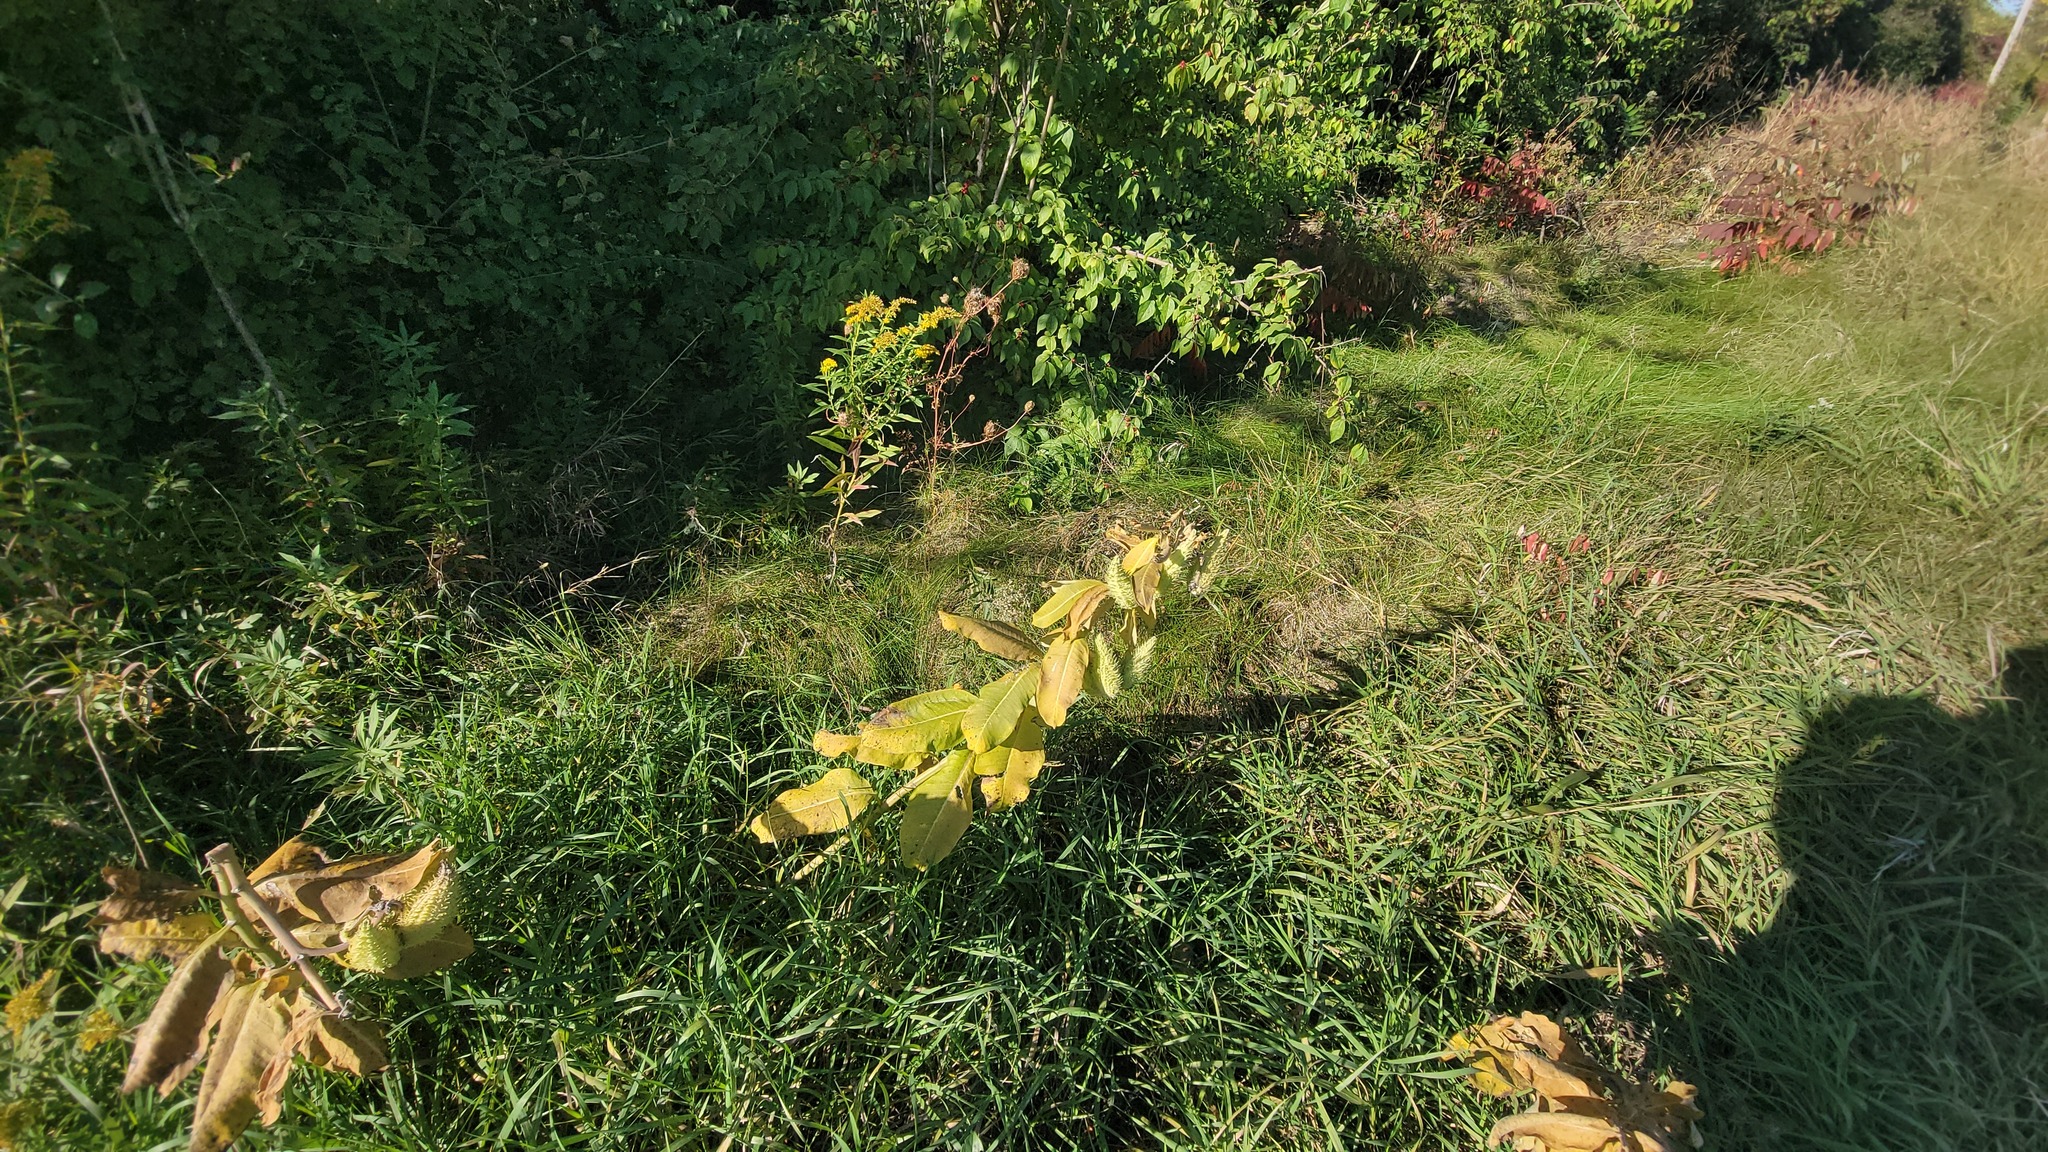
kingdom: Plantae
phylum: Tracheophyta
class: Magnoliopsida
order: Gentianales
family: Apocynaceae
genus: Asclepias
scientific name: Asclepias syriaca
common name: Common milkweed
